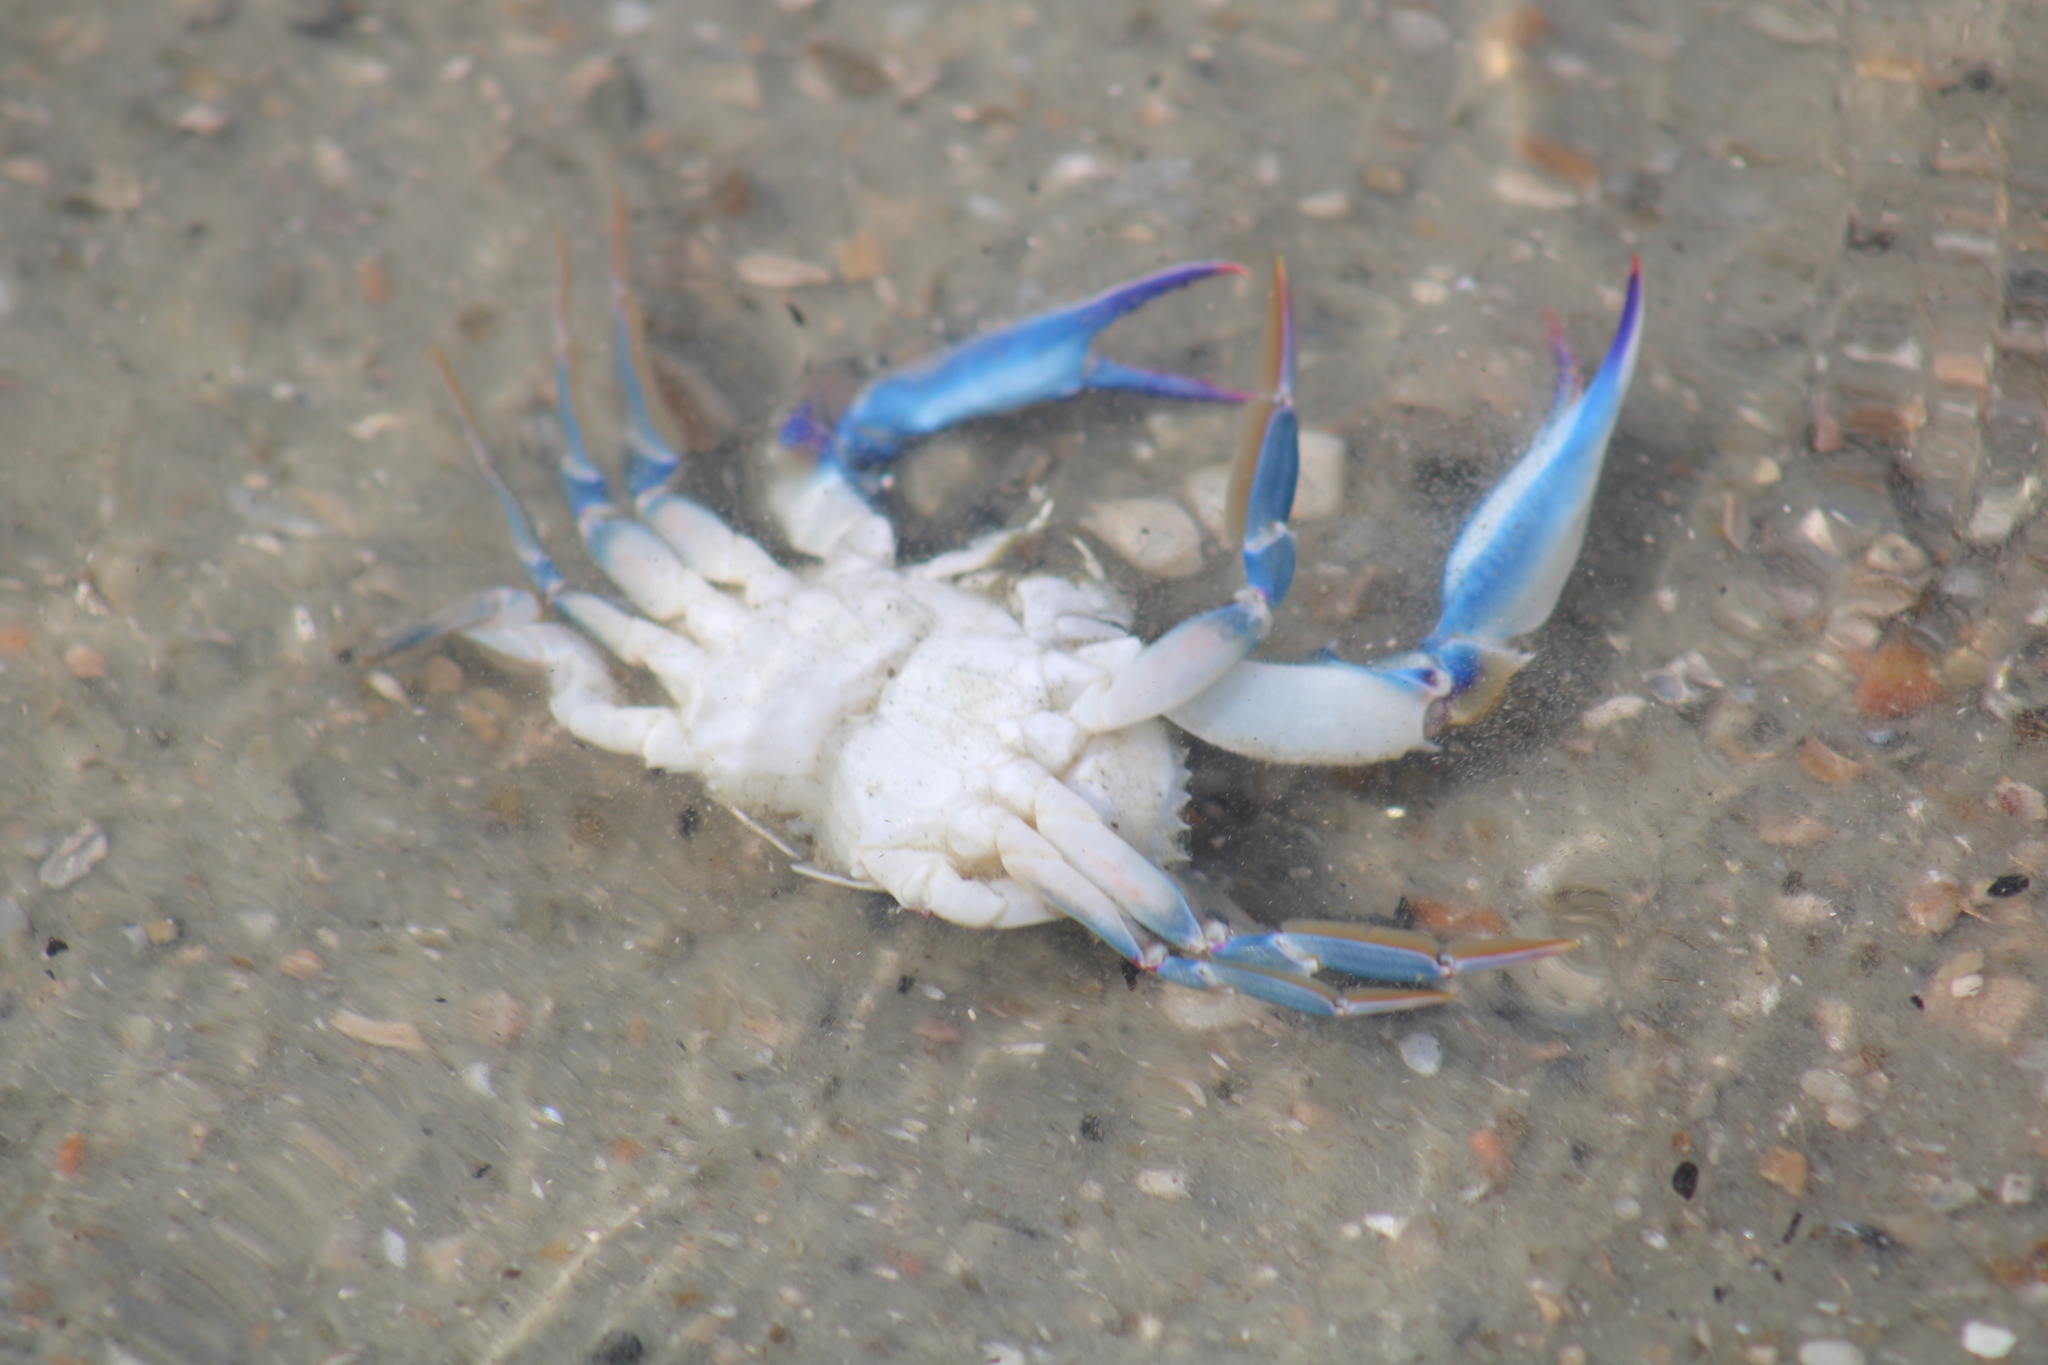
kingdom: Animalia
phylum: Arthropoda
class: Malacostraca
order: Decapoda
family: Portunidae
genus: Callinectes
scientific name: Callinectes sapidus
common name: Blue crab
